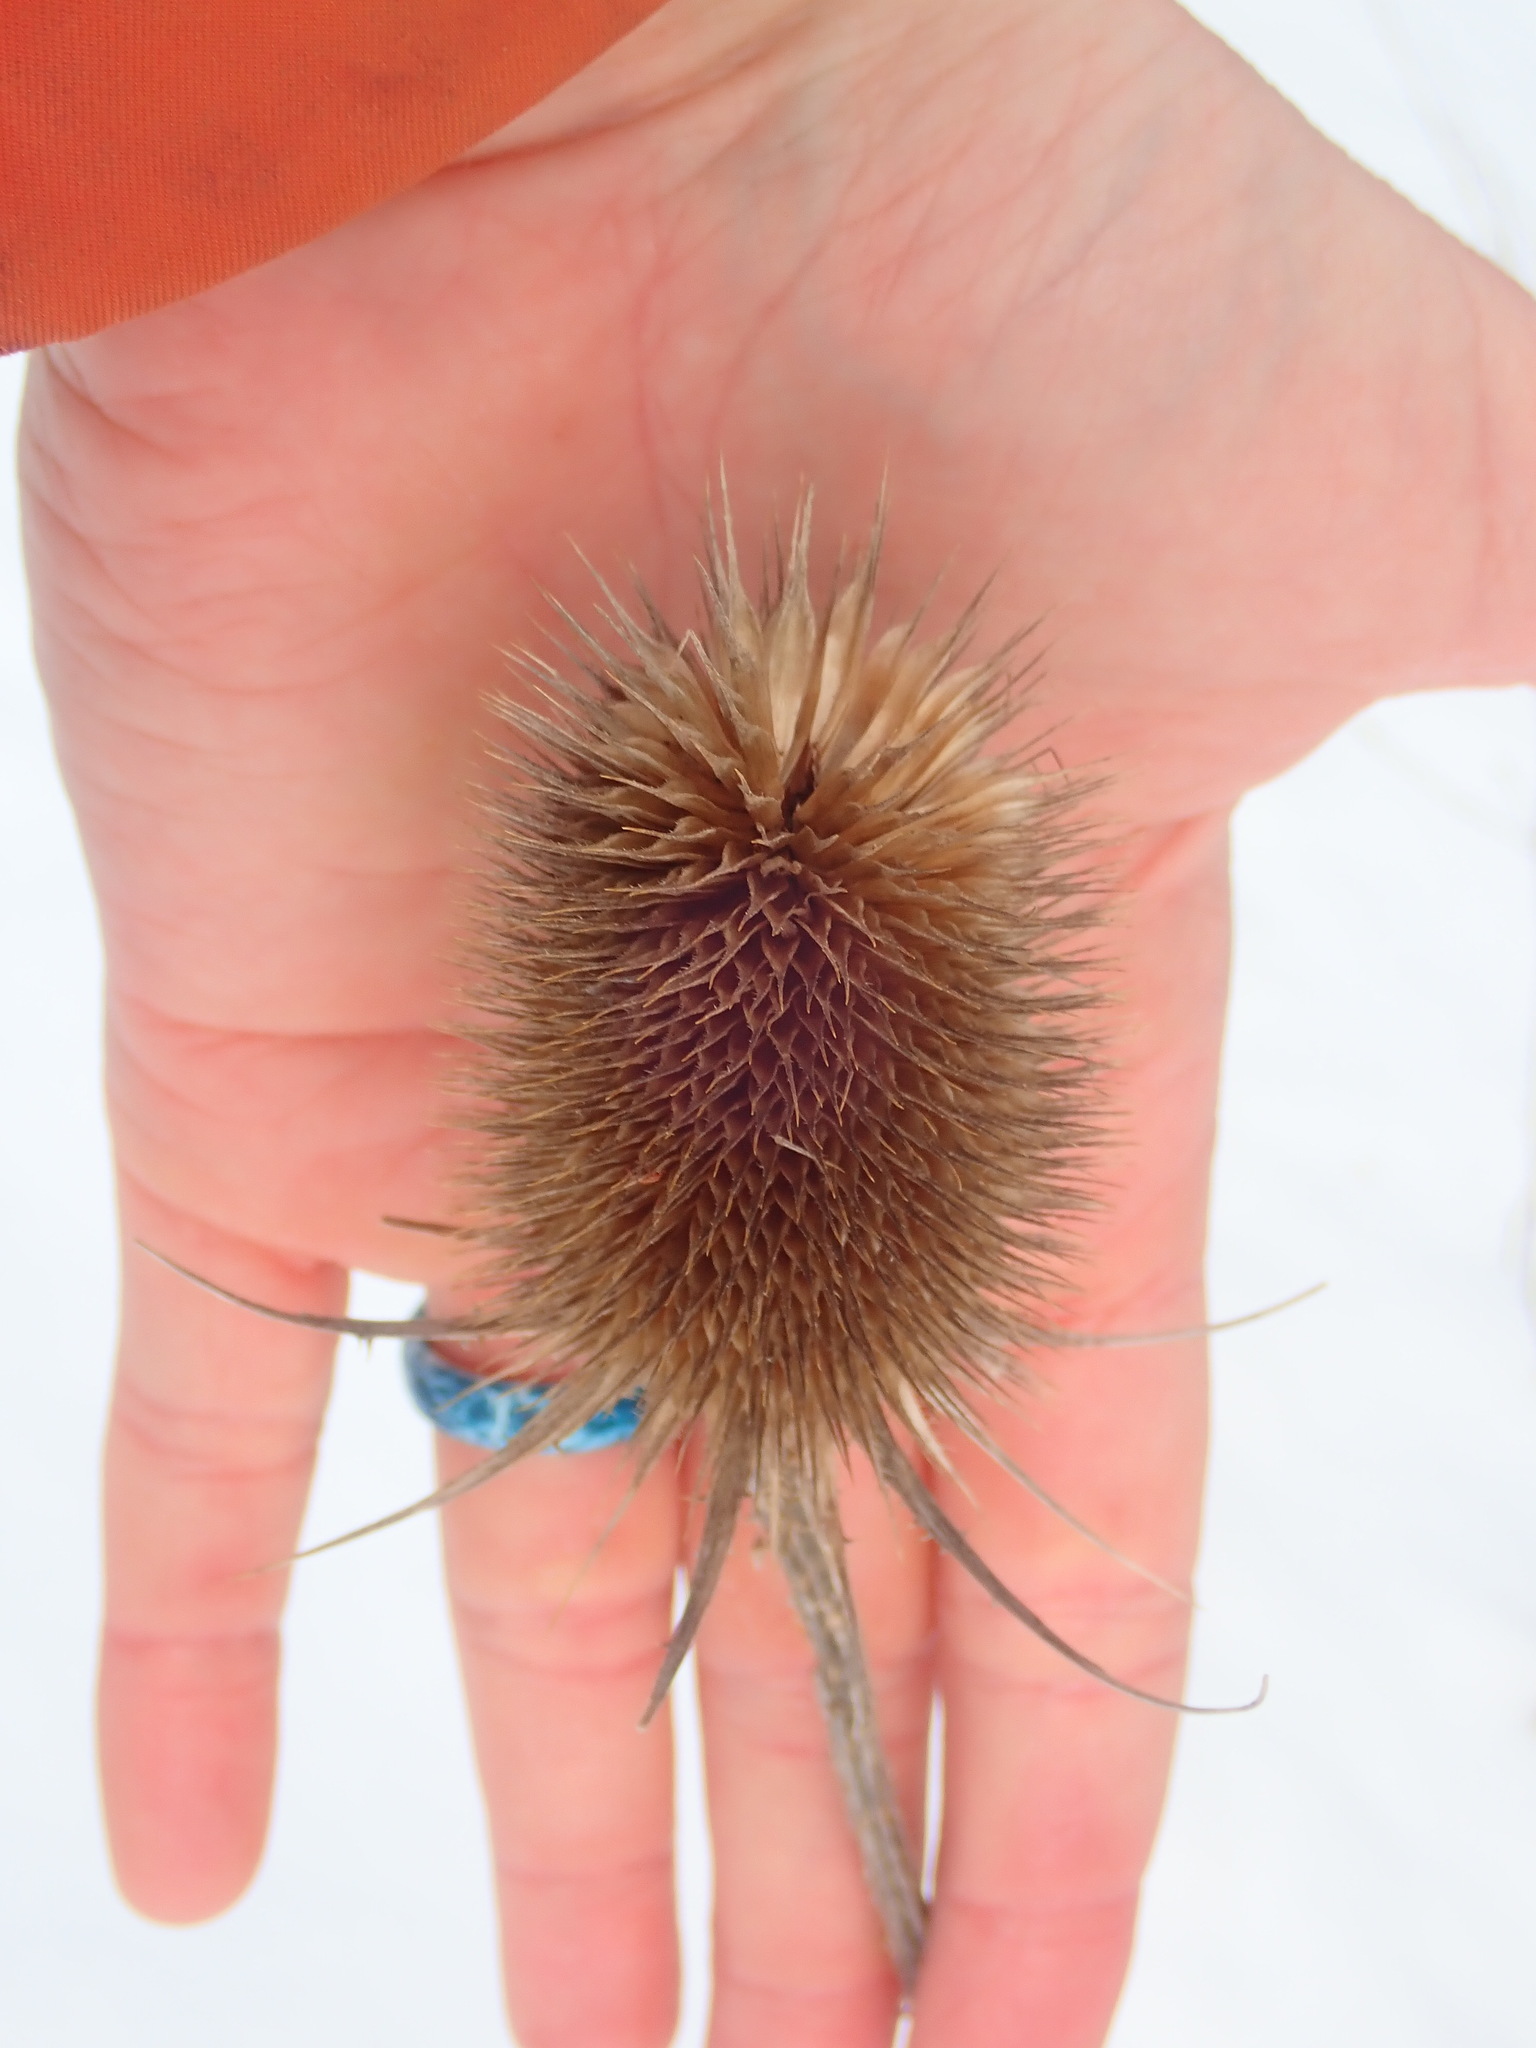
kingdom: Plantae
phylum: Tracheophyta
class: Magnoliopsida
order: Dipsacales
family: Caprifoliaceae
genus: Dipsacus
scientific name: Dipsacus fullonum
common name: Teasel
